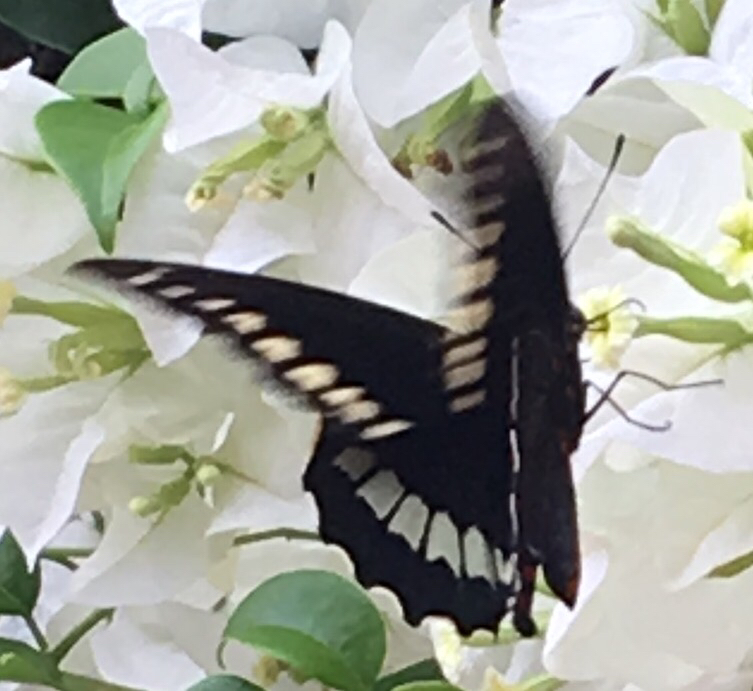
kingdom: Animalia
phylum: Arthropoda
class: Insecta
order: Lepidoptera
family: Papilionidae
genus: Battus
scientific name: Battus polydamas
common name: Polydamas swallowtail
